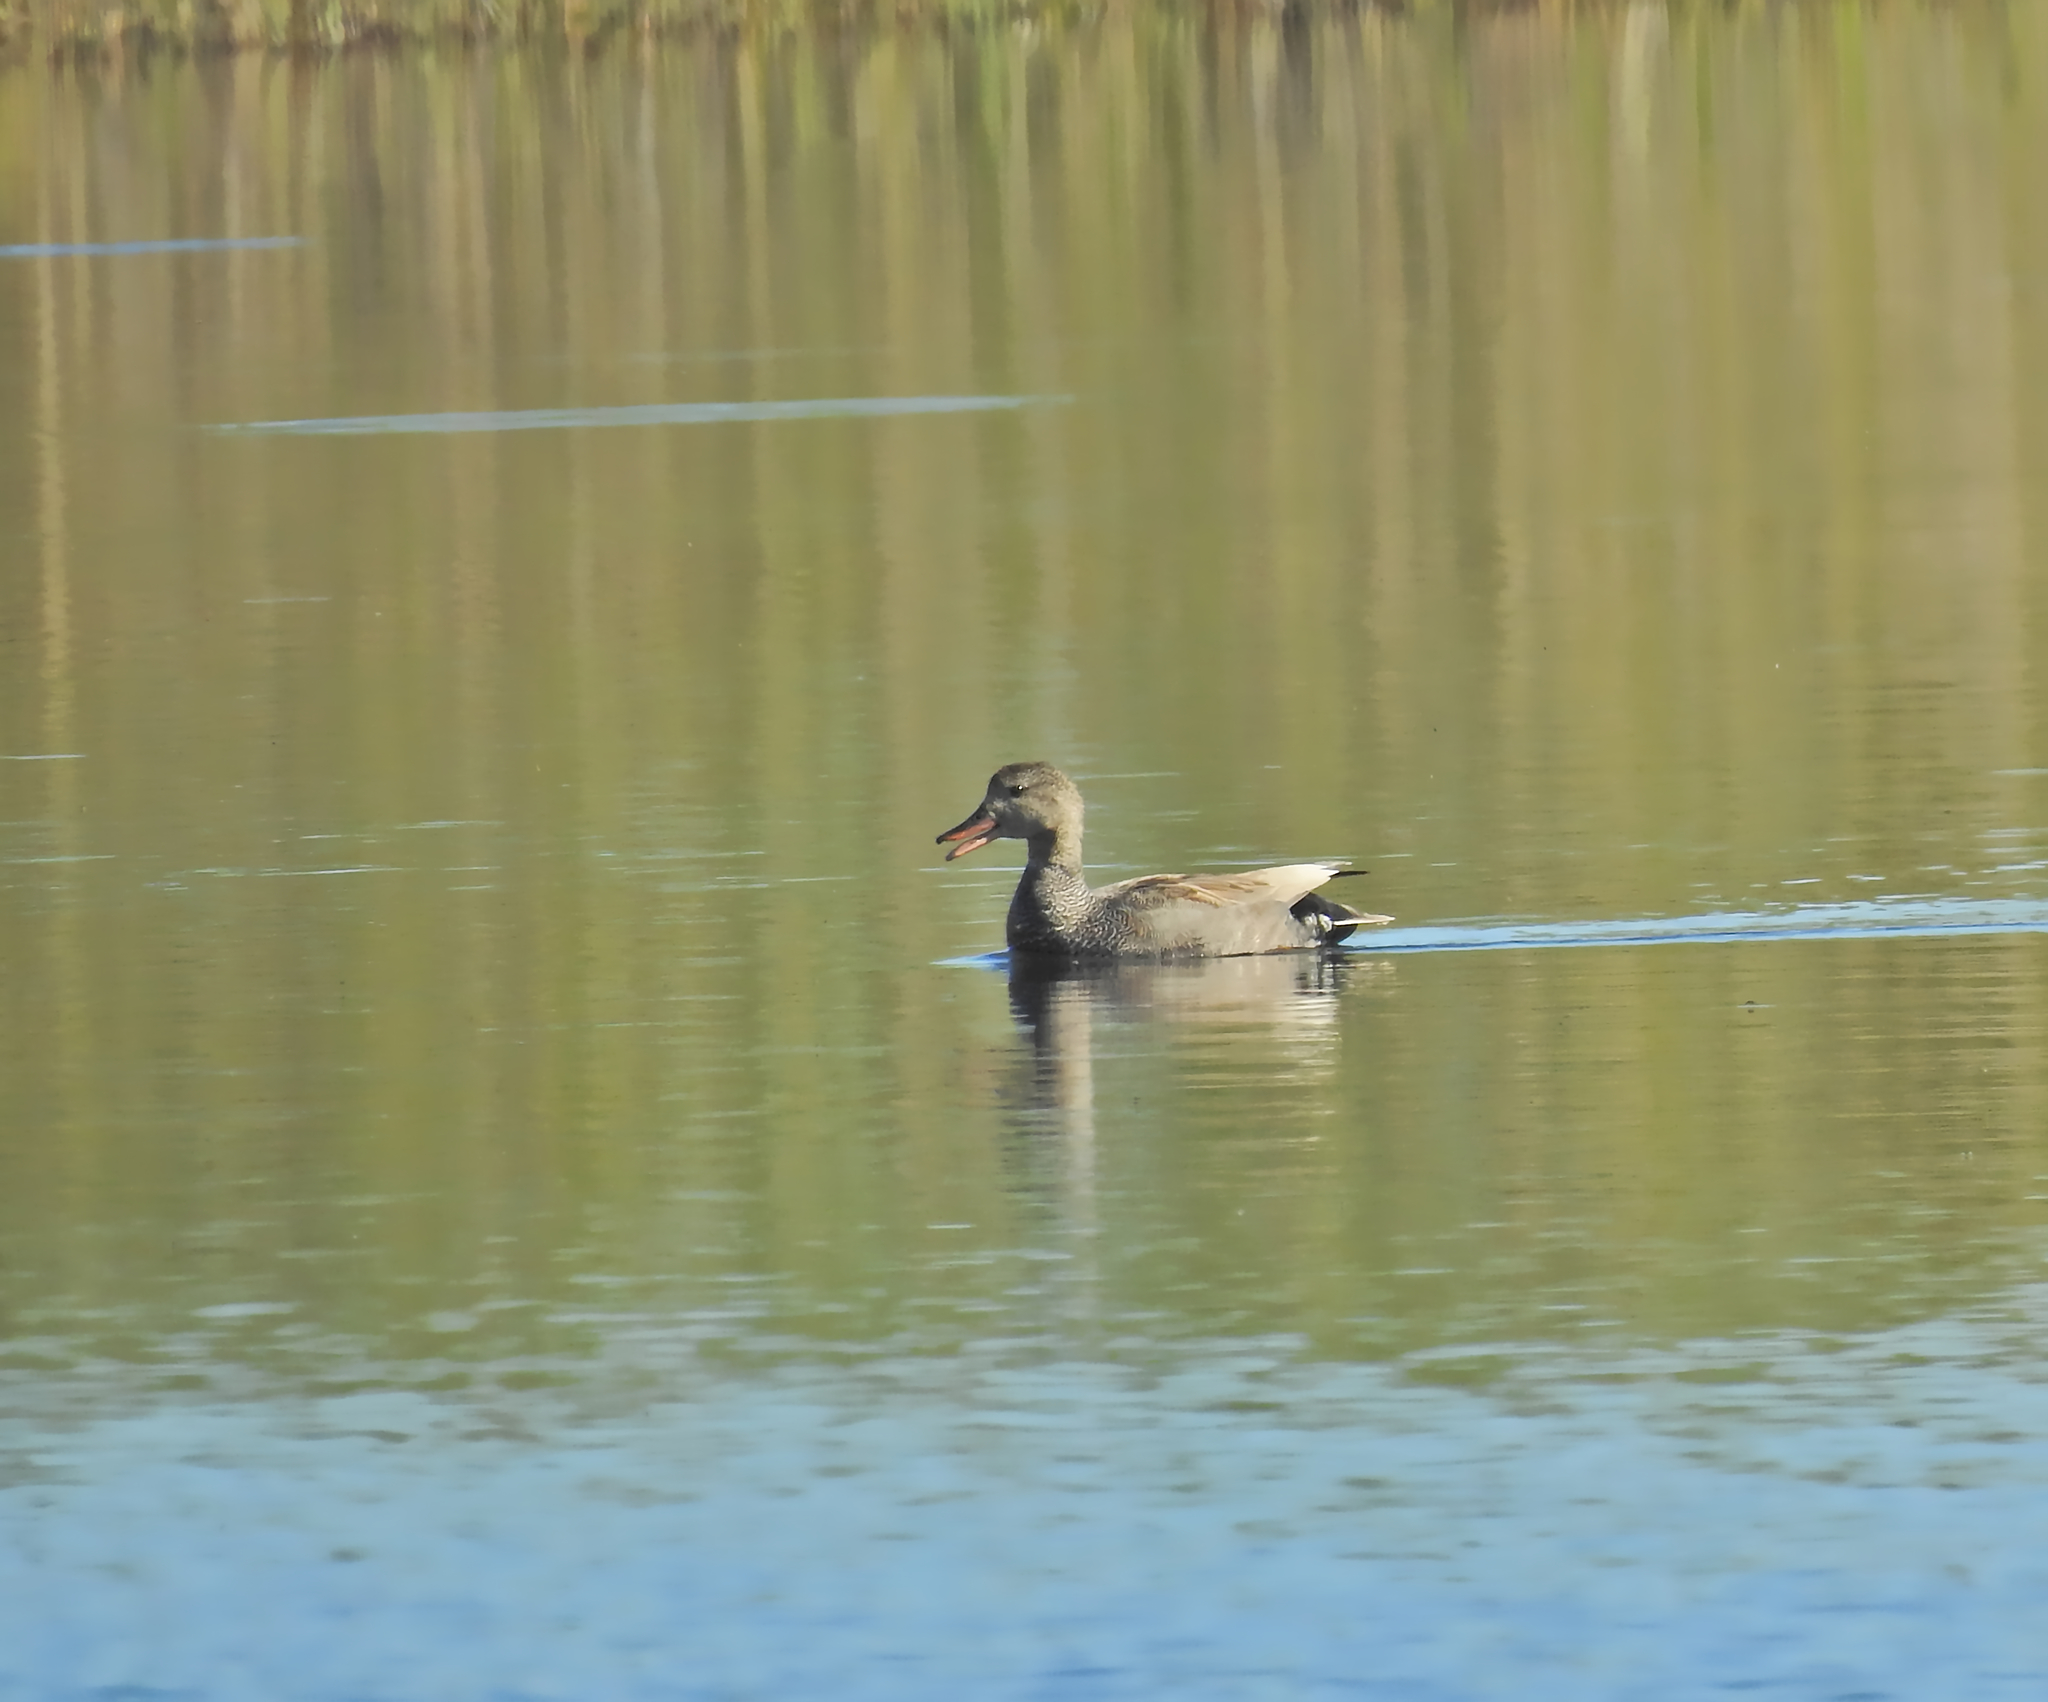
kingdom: Animalia
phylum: Chordata
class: Aves
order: Anseriformes
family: Anatidae
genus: Mareca
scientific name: Mareca strepera
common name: Gadwall
